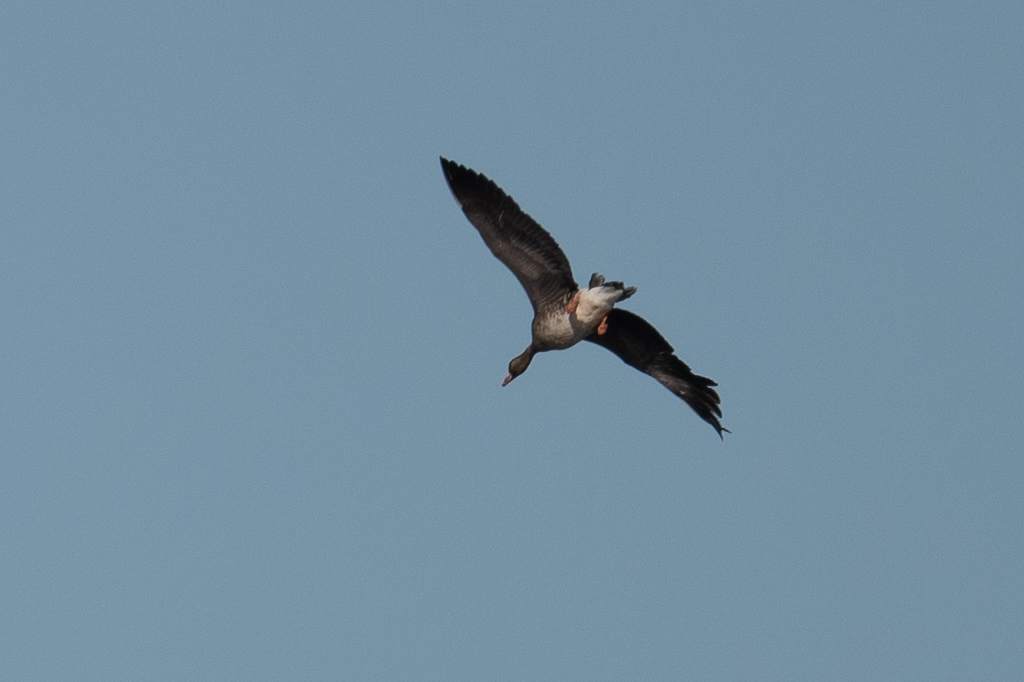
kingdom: Animalia
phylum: Chordata
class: Aves
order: Anseriformes
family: Anatidae
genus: Anser
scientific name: Anser albifrons
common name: Greater white-fronted goose
